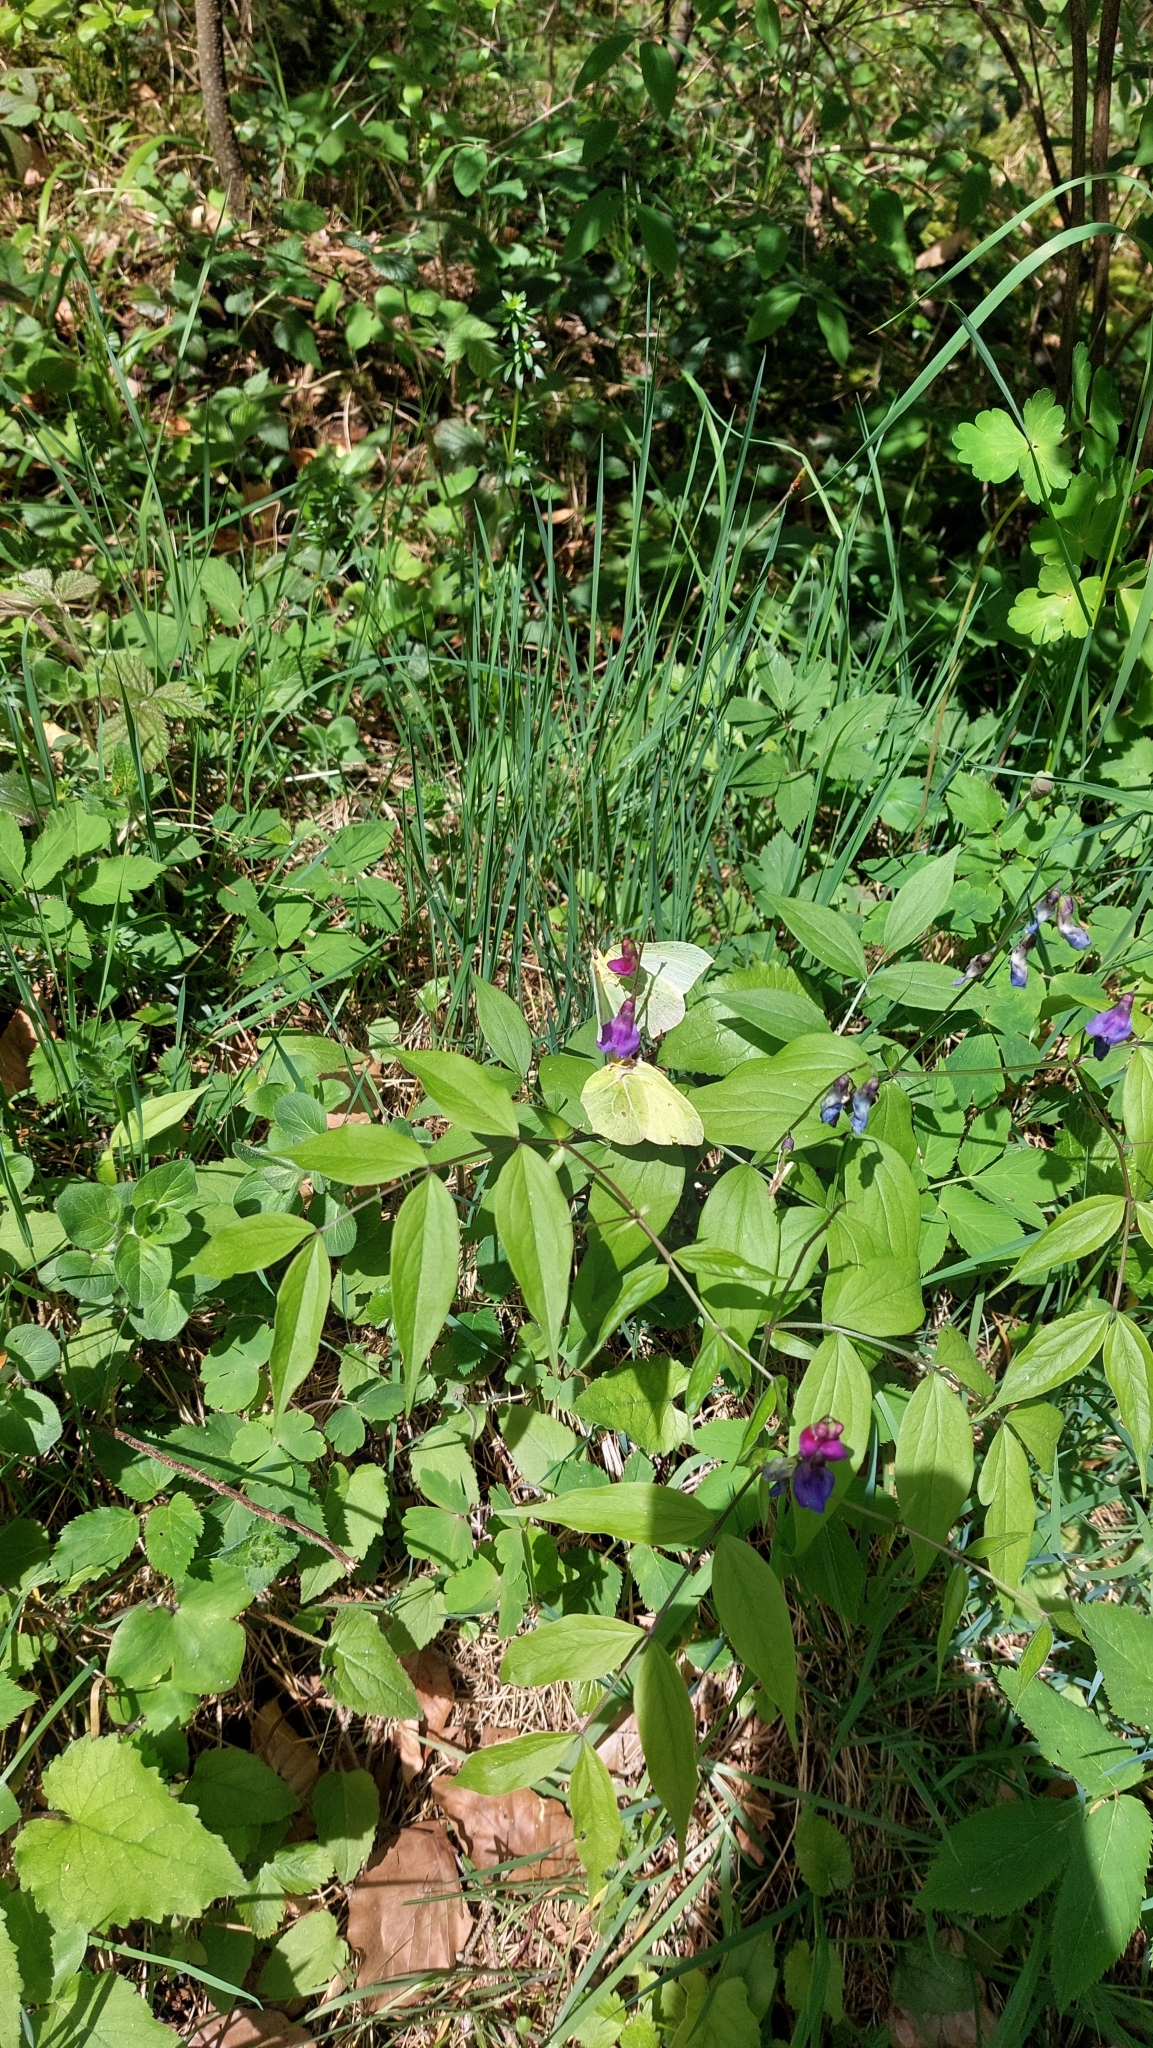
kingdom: Animalia
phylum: Arthropoda
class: Insecta
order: Lepidoptera
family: Pieridae
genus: Gonepteryx
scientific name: Gonepteryx rhamni
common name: Brimstone
